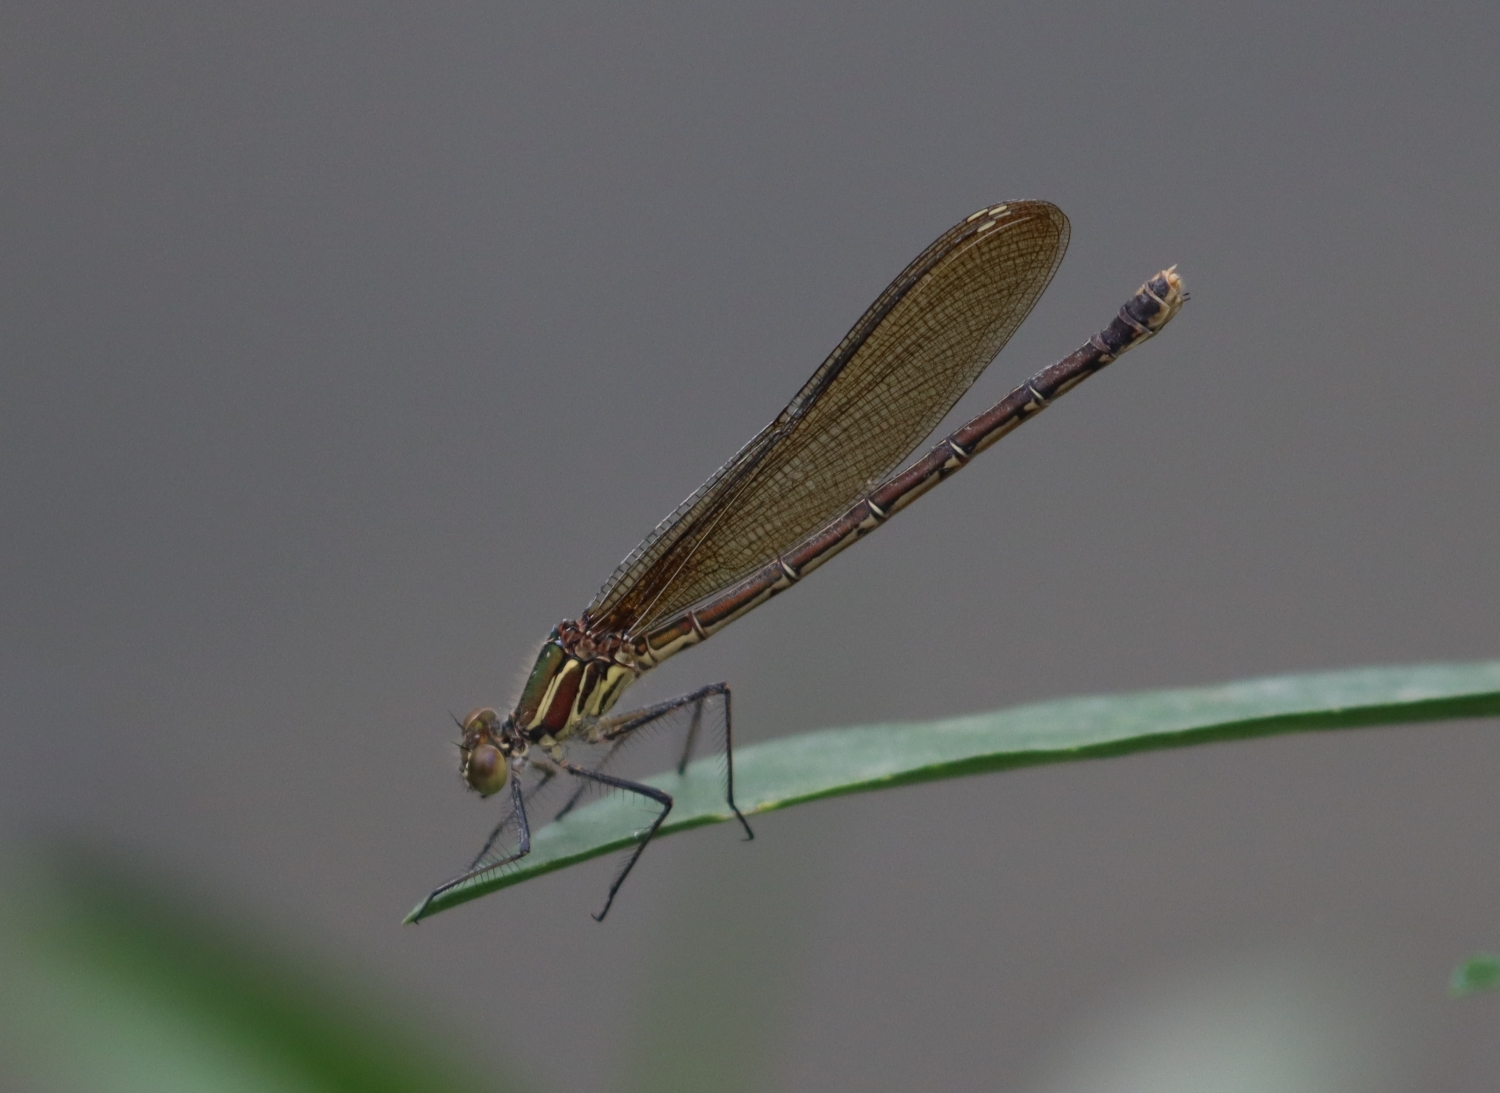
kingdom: Animalia
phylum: Arthropoda
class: Insecta
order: Odonata
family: Calopterygidae
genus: Hetaerina
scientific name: Hetaerina americana
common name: American rubyspot
